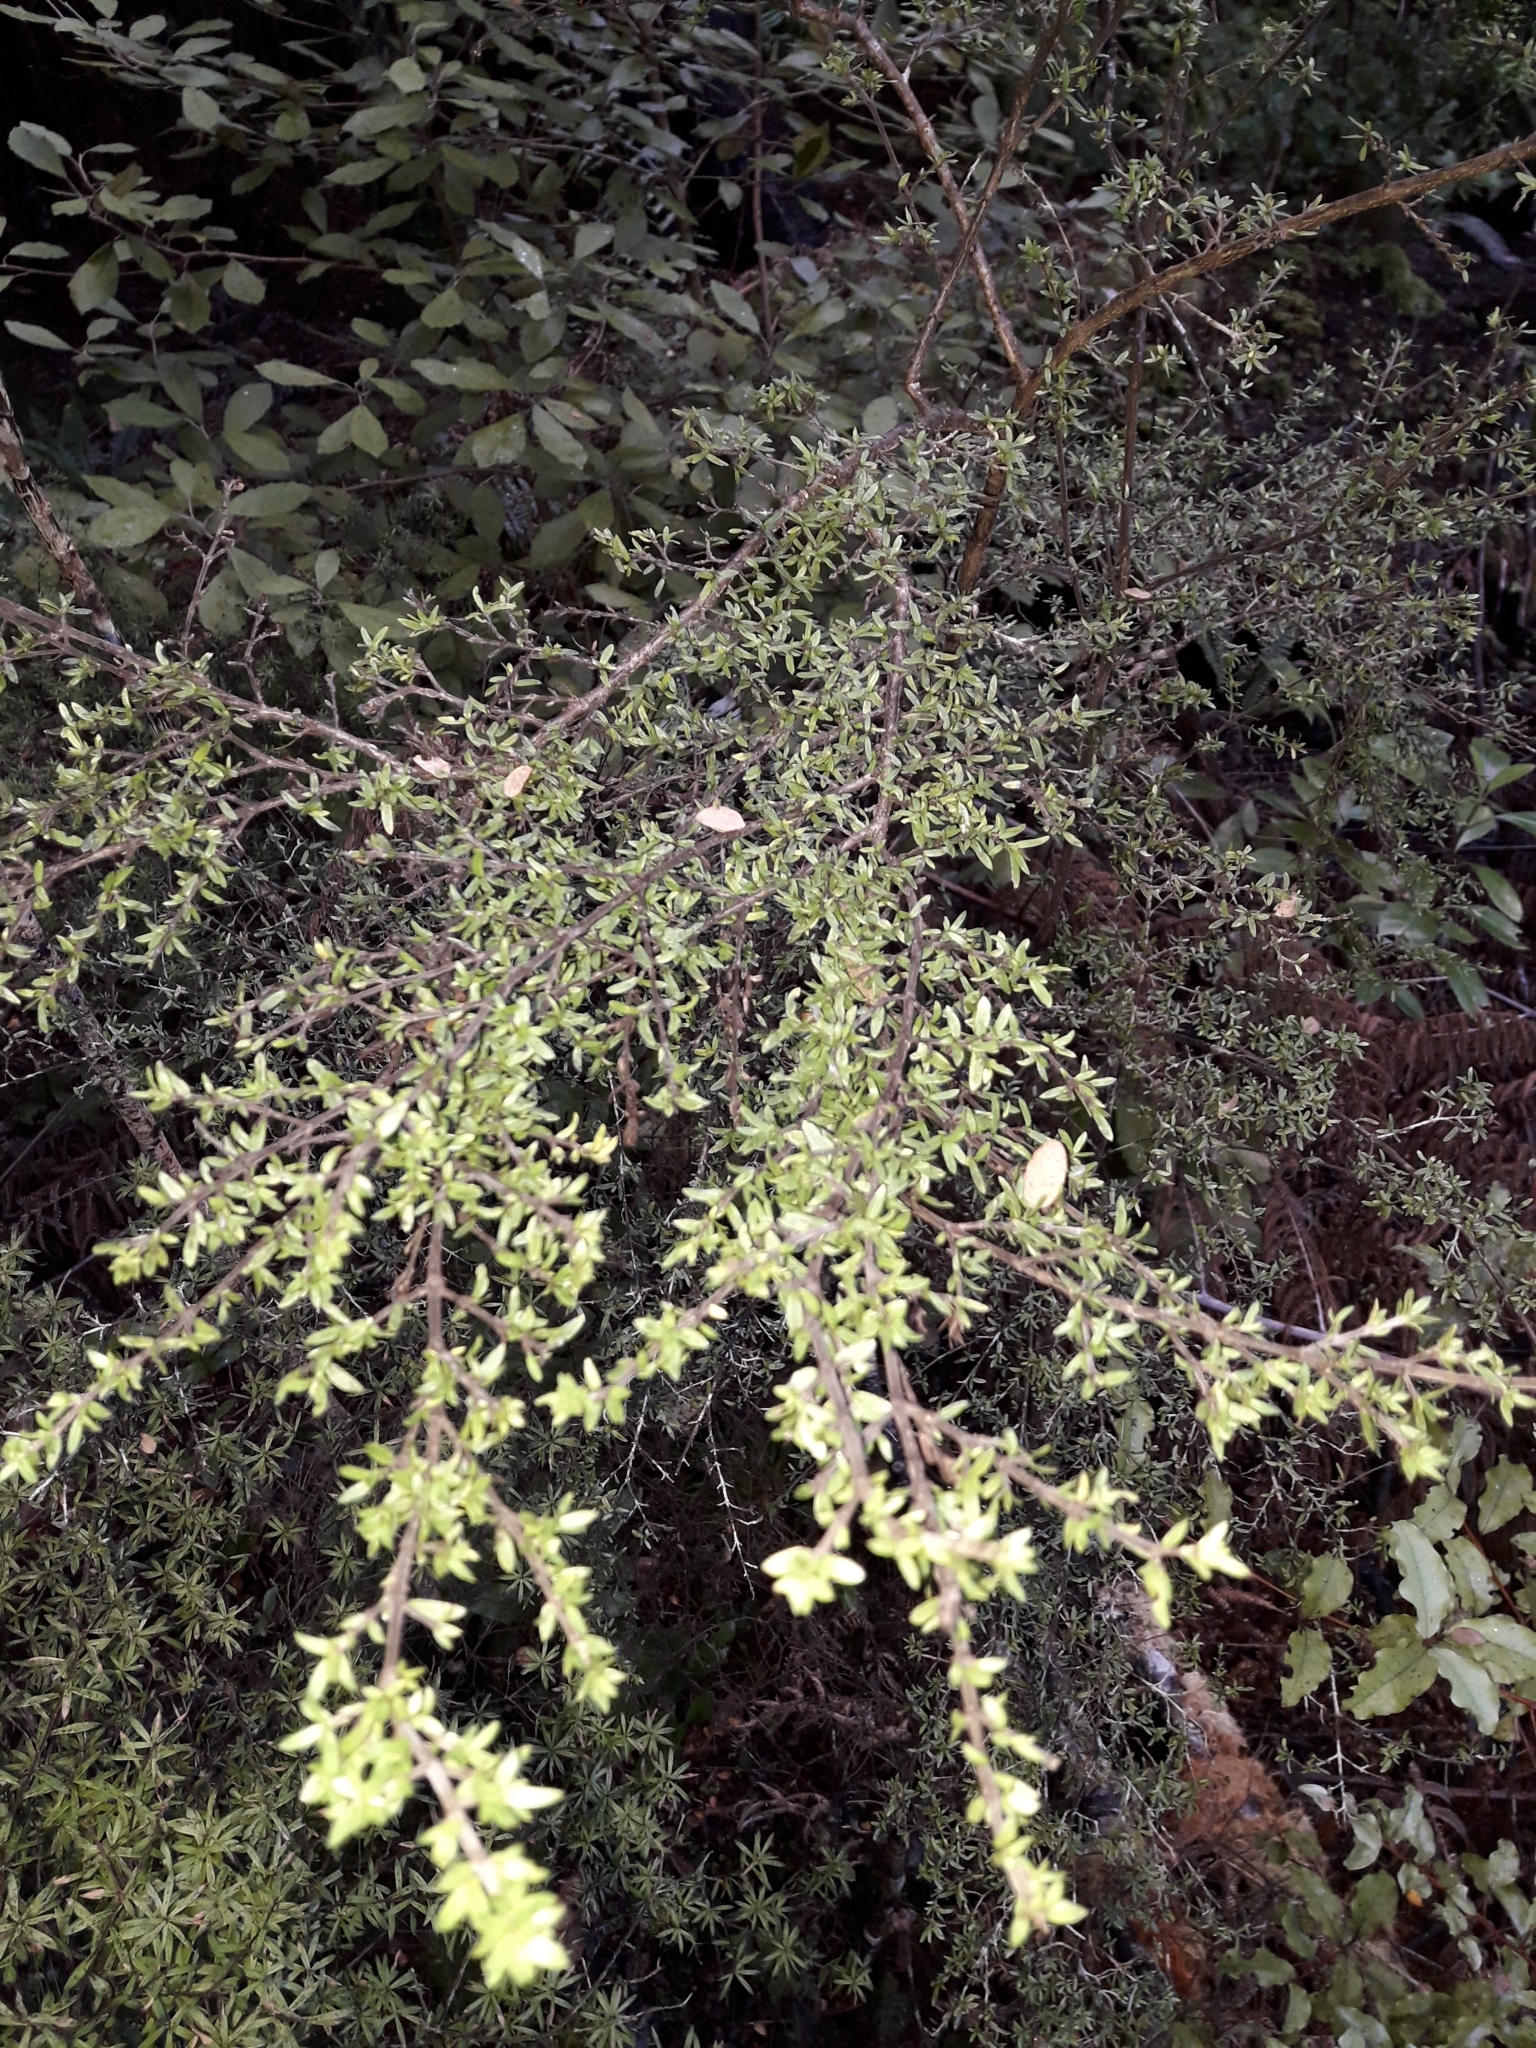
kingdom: Plantae
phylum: Tracheophyta
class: Magnoliopsida
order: Gentianales
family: Rubiaceae
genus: Coprosma
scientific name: Coprosma microcarpa
